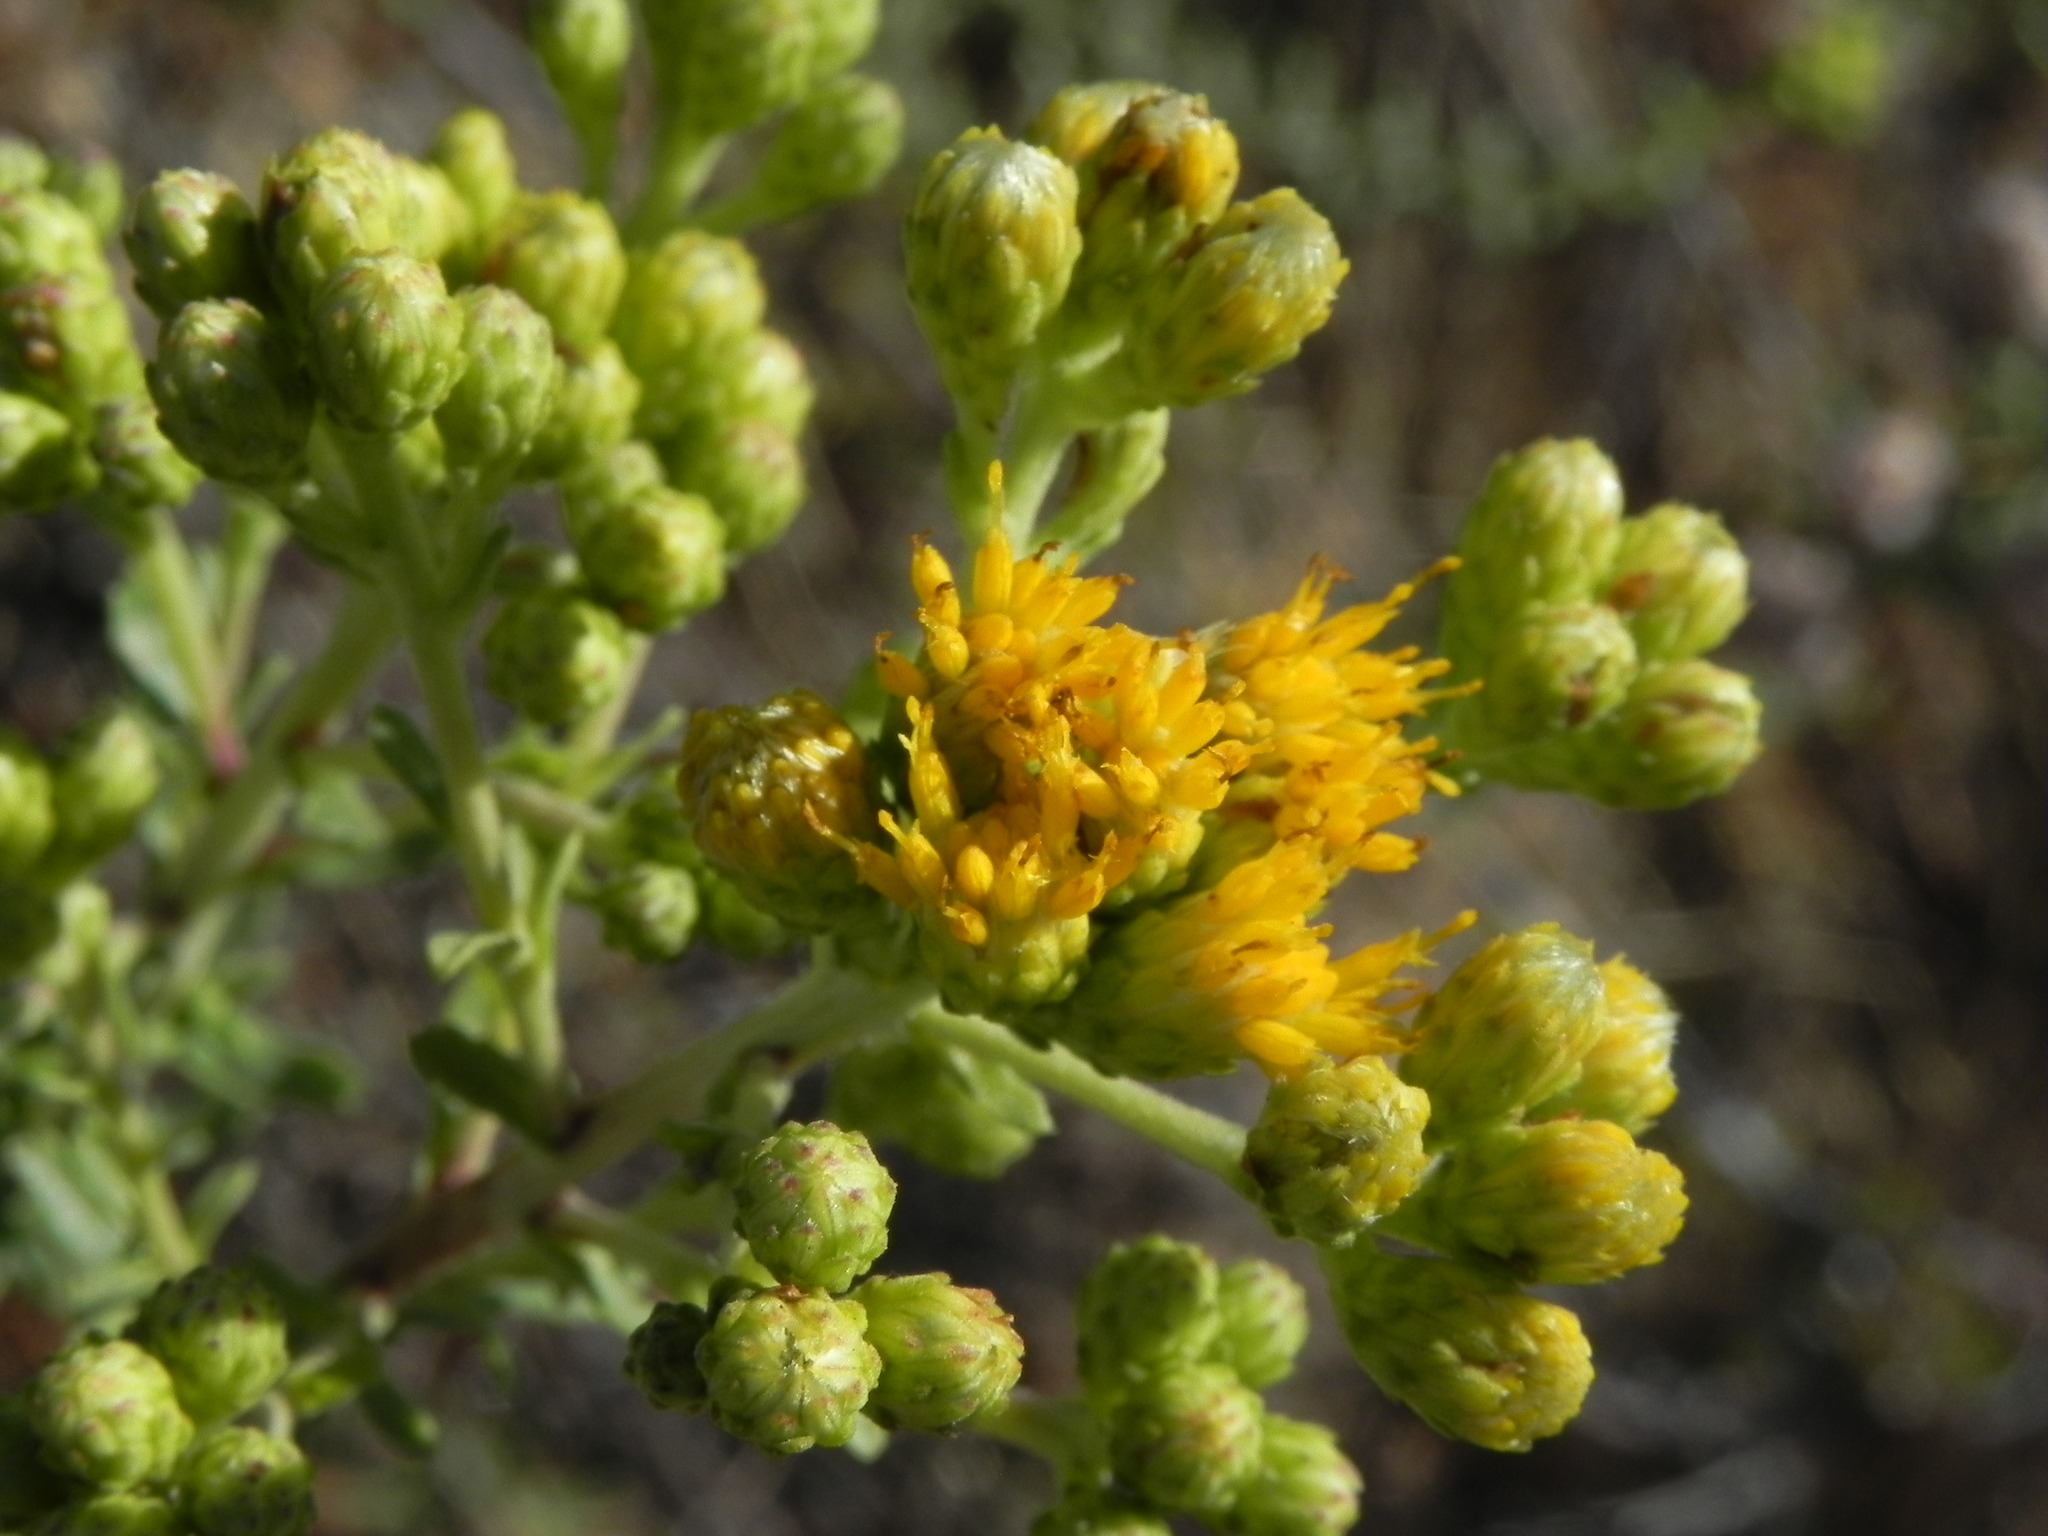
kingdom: Plantae
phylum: Tracheophyta
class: Magnoliopsida
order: Asterales
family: Asteraceae
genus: Isocoma
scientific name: Isocoma menziesii
